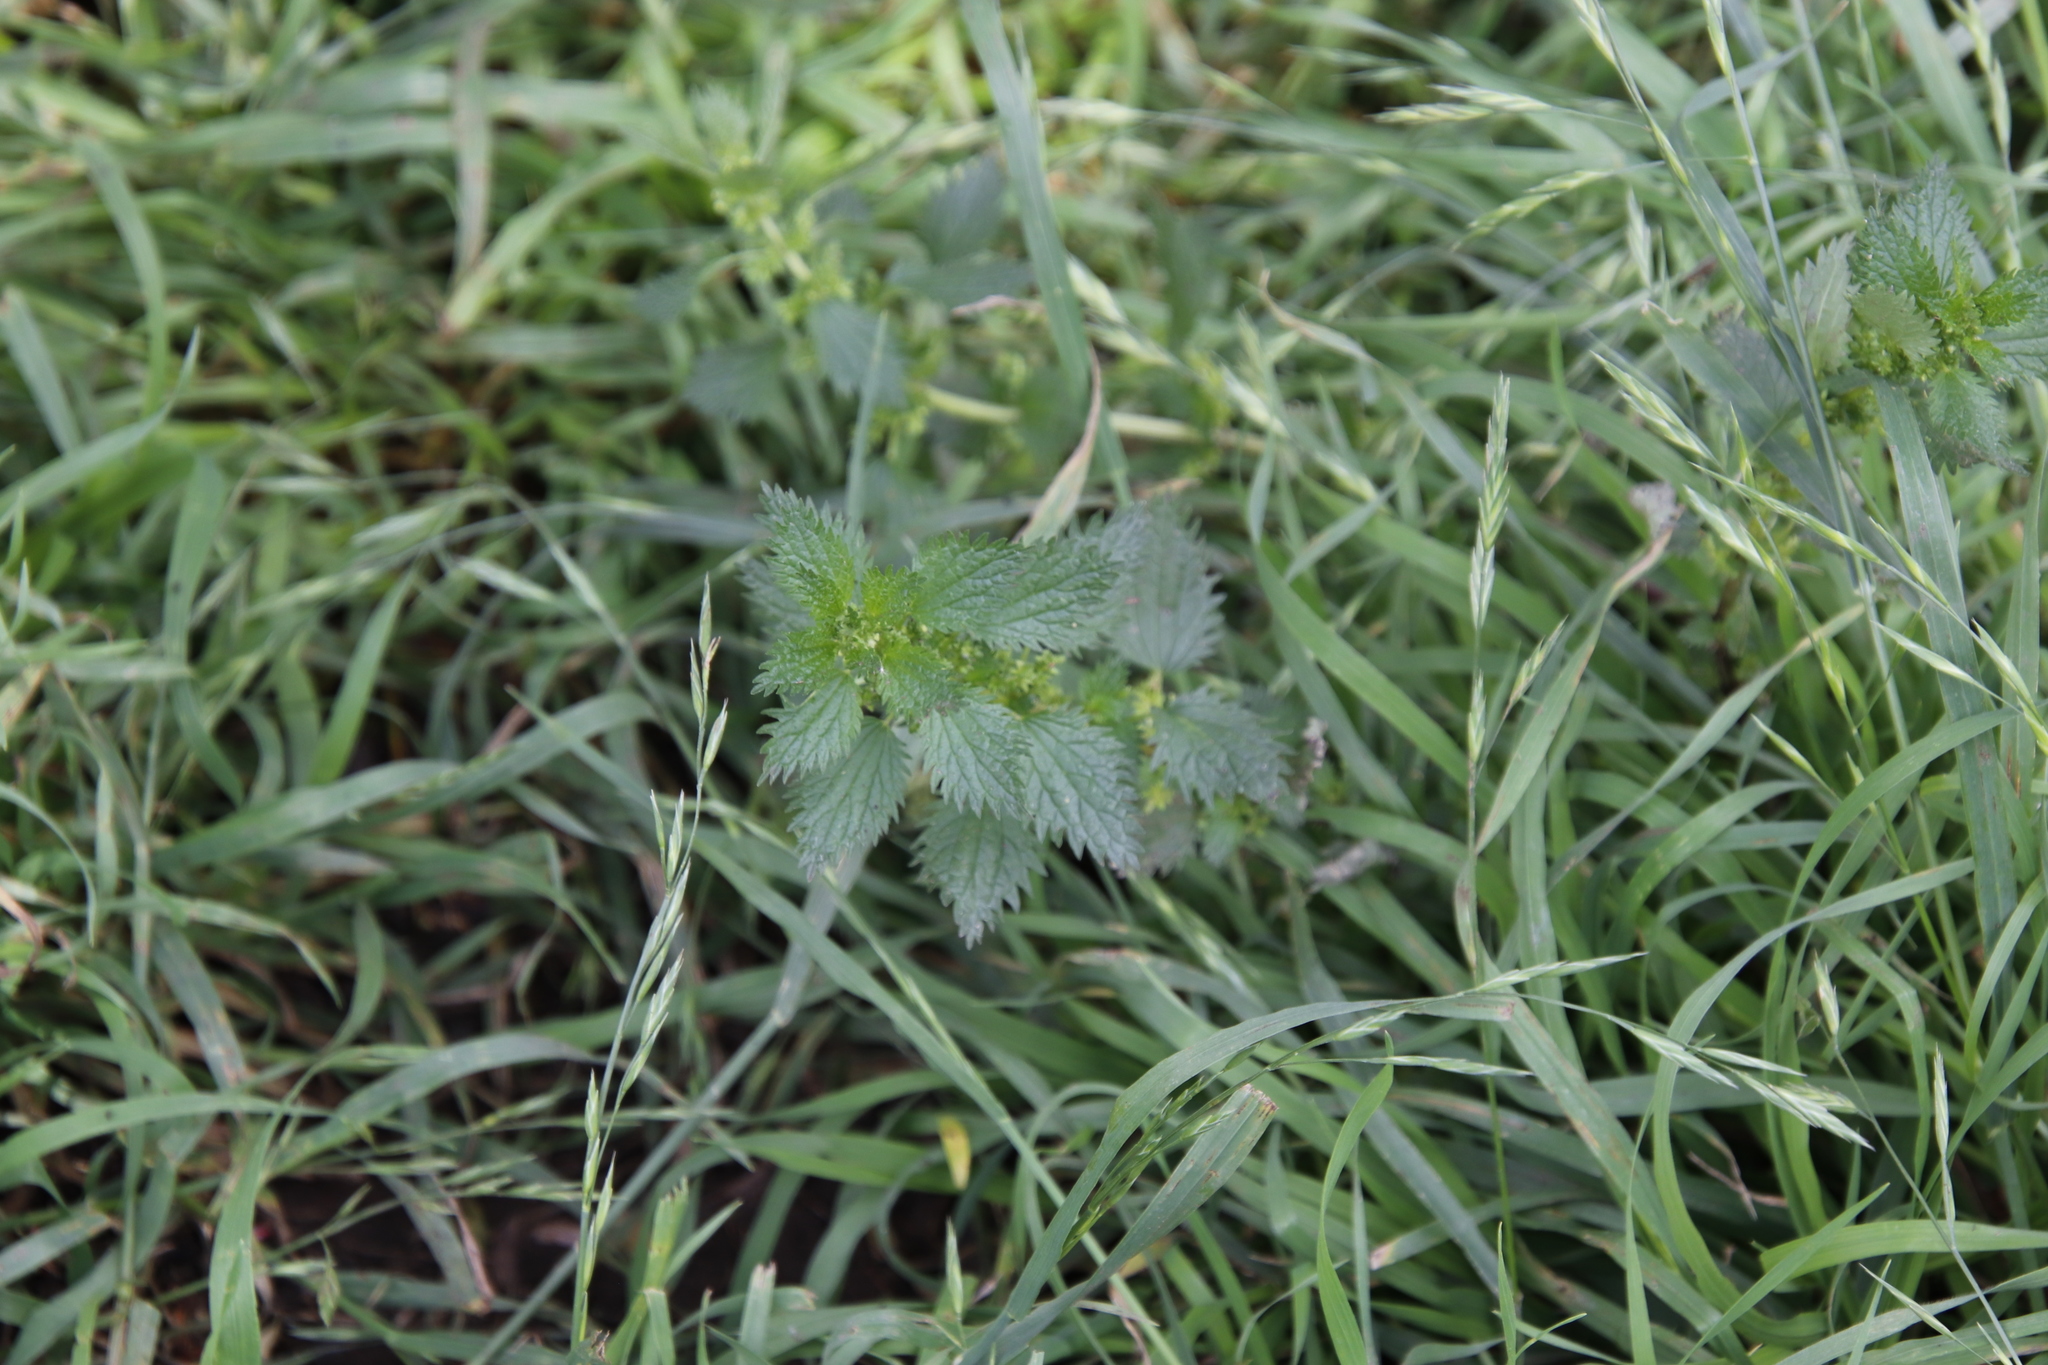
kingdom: Plantae
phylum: Tracheophyta
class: Magnoliopsida
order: Rosales
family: Urticaceae
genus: Urtica
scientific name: Urtica urens
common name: Dwarf nettle
